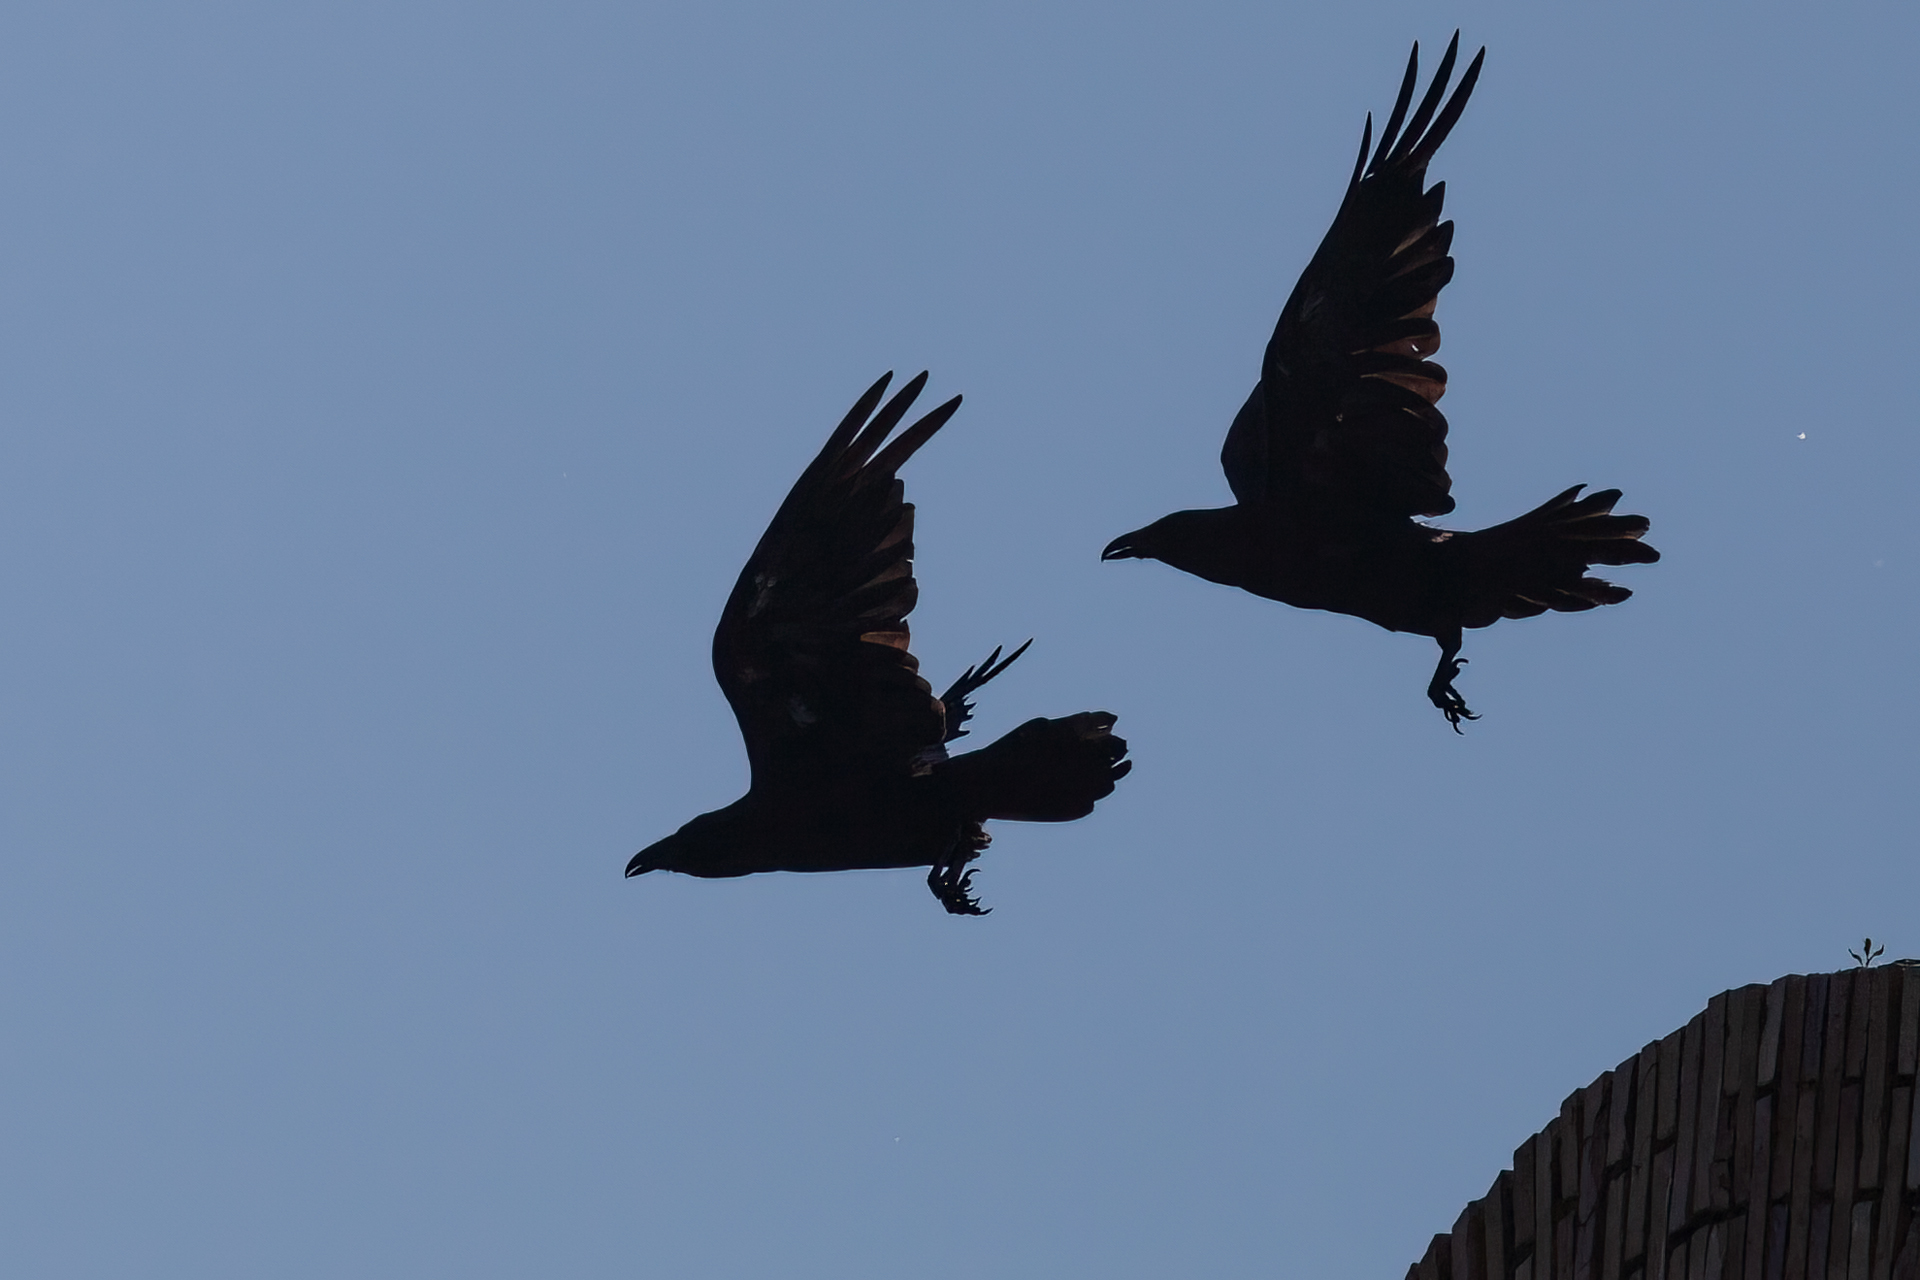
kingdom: Animalia
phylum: Chordata
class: Aves
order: Passeriformes
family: Corvidae
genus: Corvus
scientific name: Corvus corax
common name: Common raven
